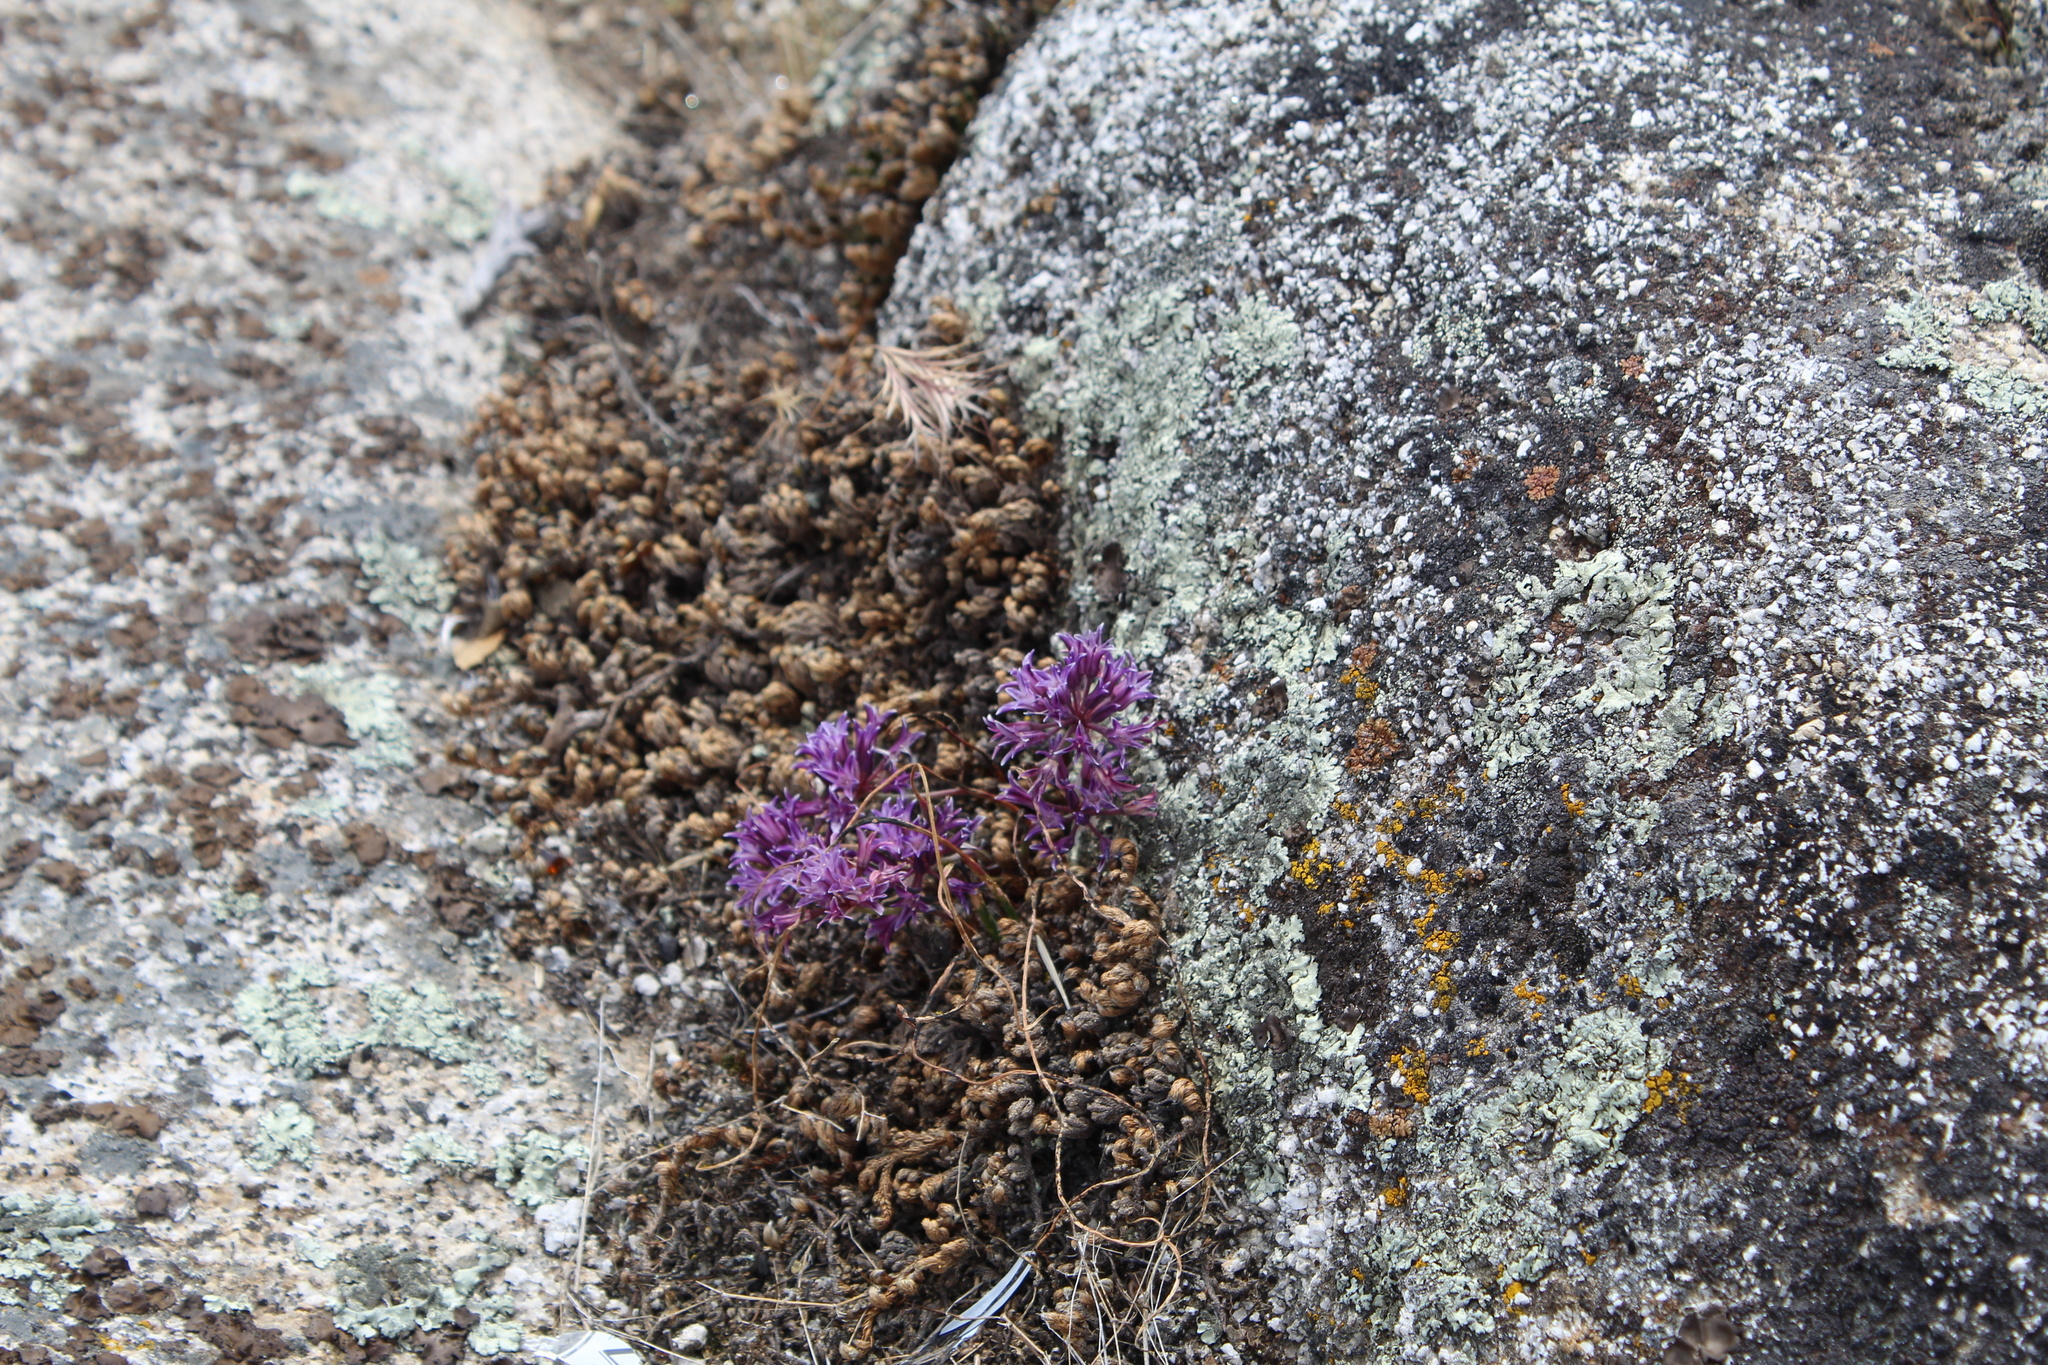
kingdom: Plantae
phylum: Tracheophyta
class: Liliopsida
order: Asparagales
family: Amaryllidaceae
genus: Allium
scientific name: Allium abramsii
